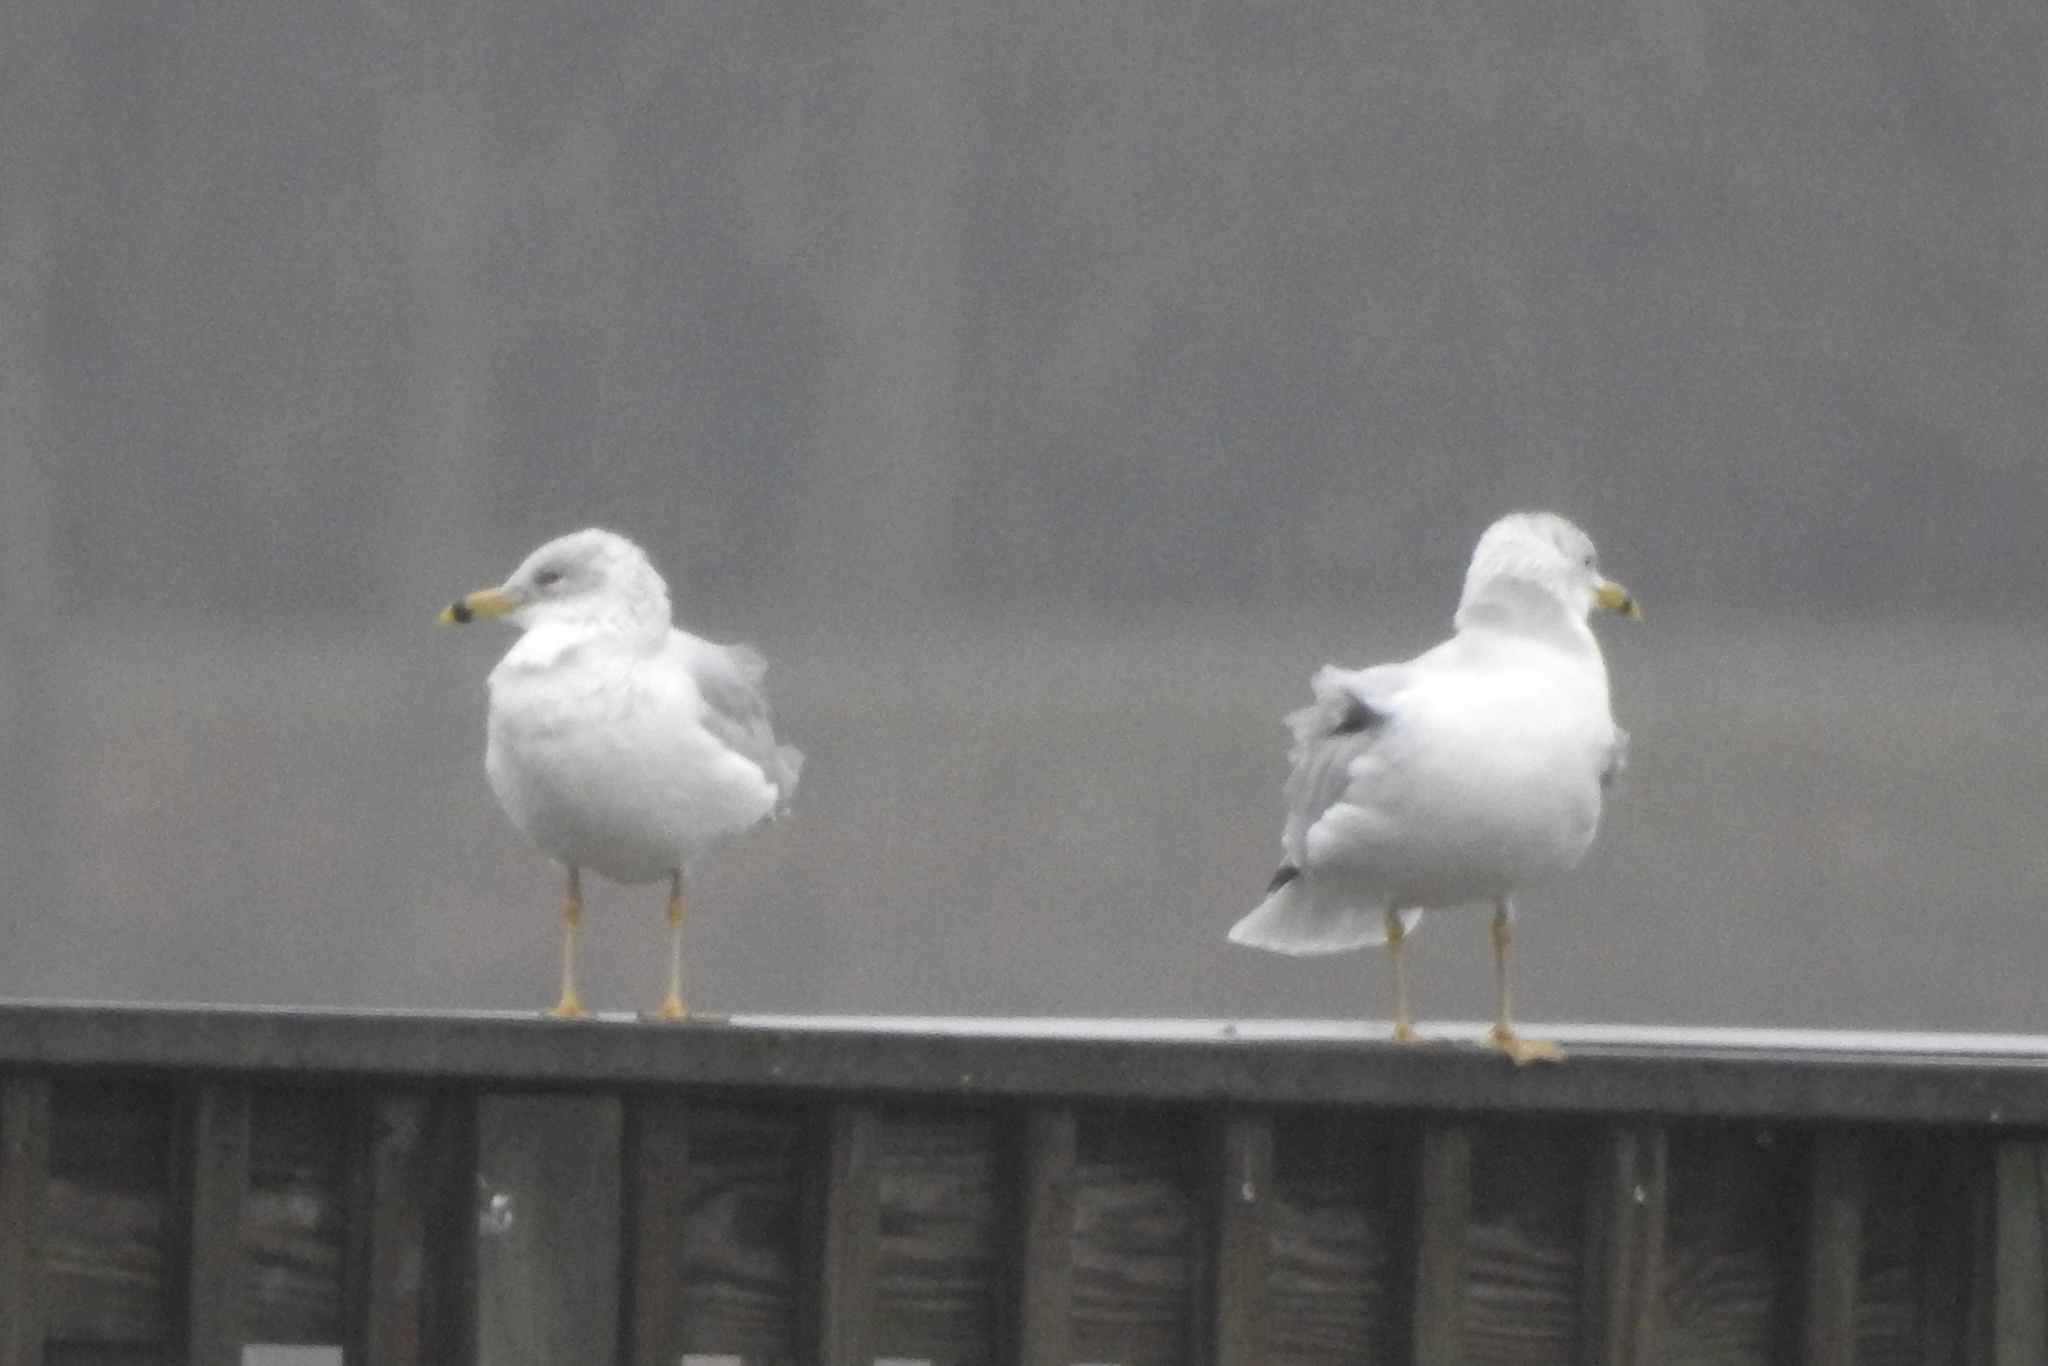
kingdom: Animalia
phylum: Chordata
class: Aves
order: Charadriiformes
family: Laridae
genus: Larus
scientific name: Larus delawarensis
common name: Ring-billed gull
